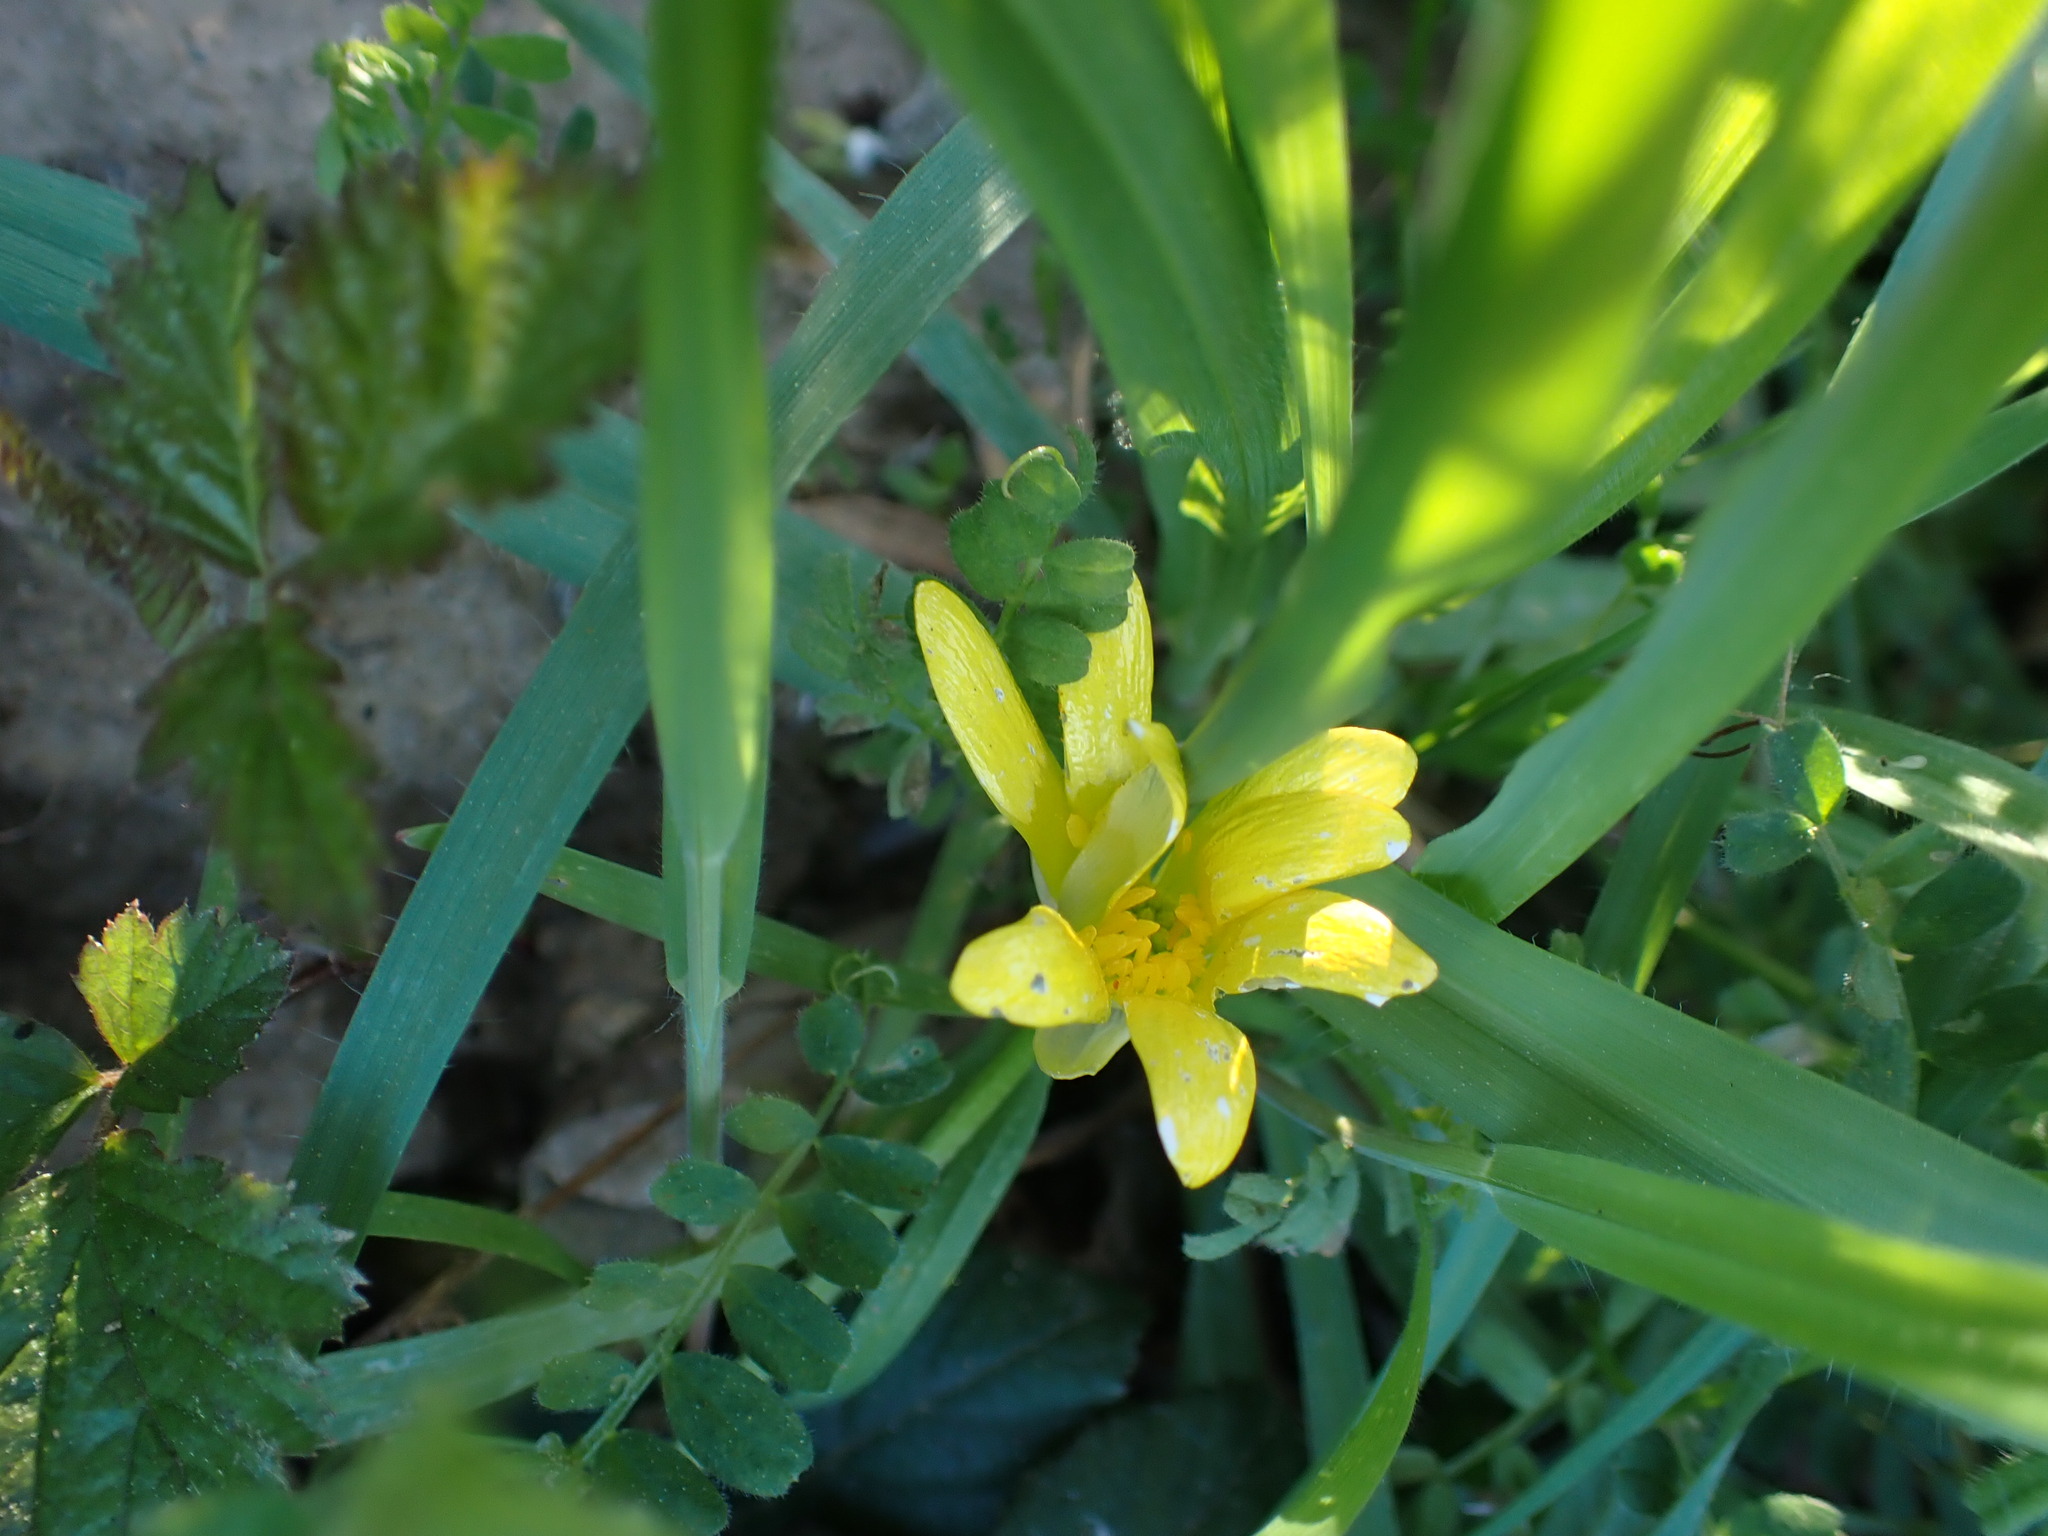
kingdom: Plantae
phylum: Tracheophyta
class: Magnoliopsida
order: Ranunculales
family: Ranunculaceae
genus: Ficaria
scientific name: Ficaria verna
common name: Lesser celandine
